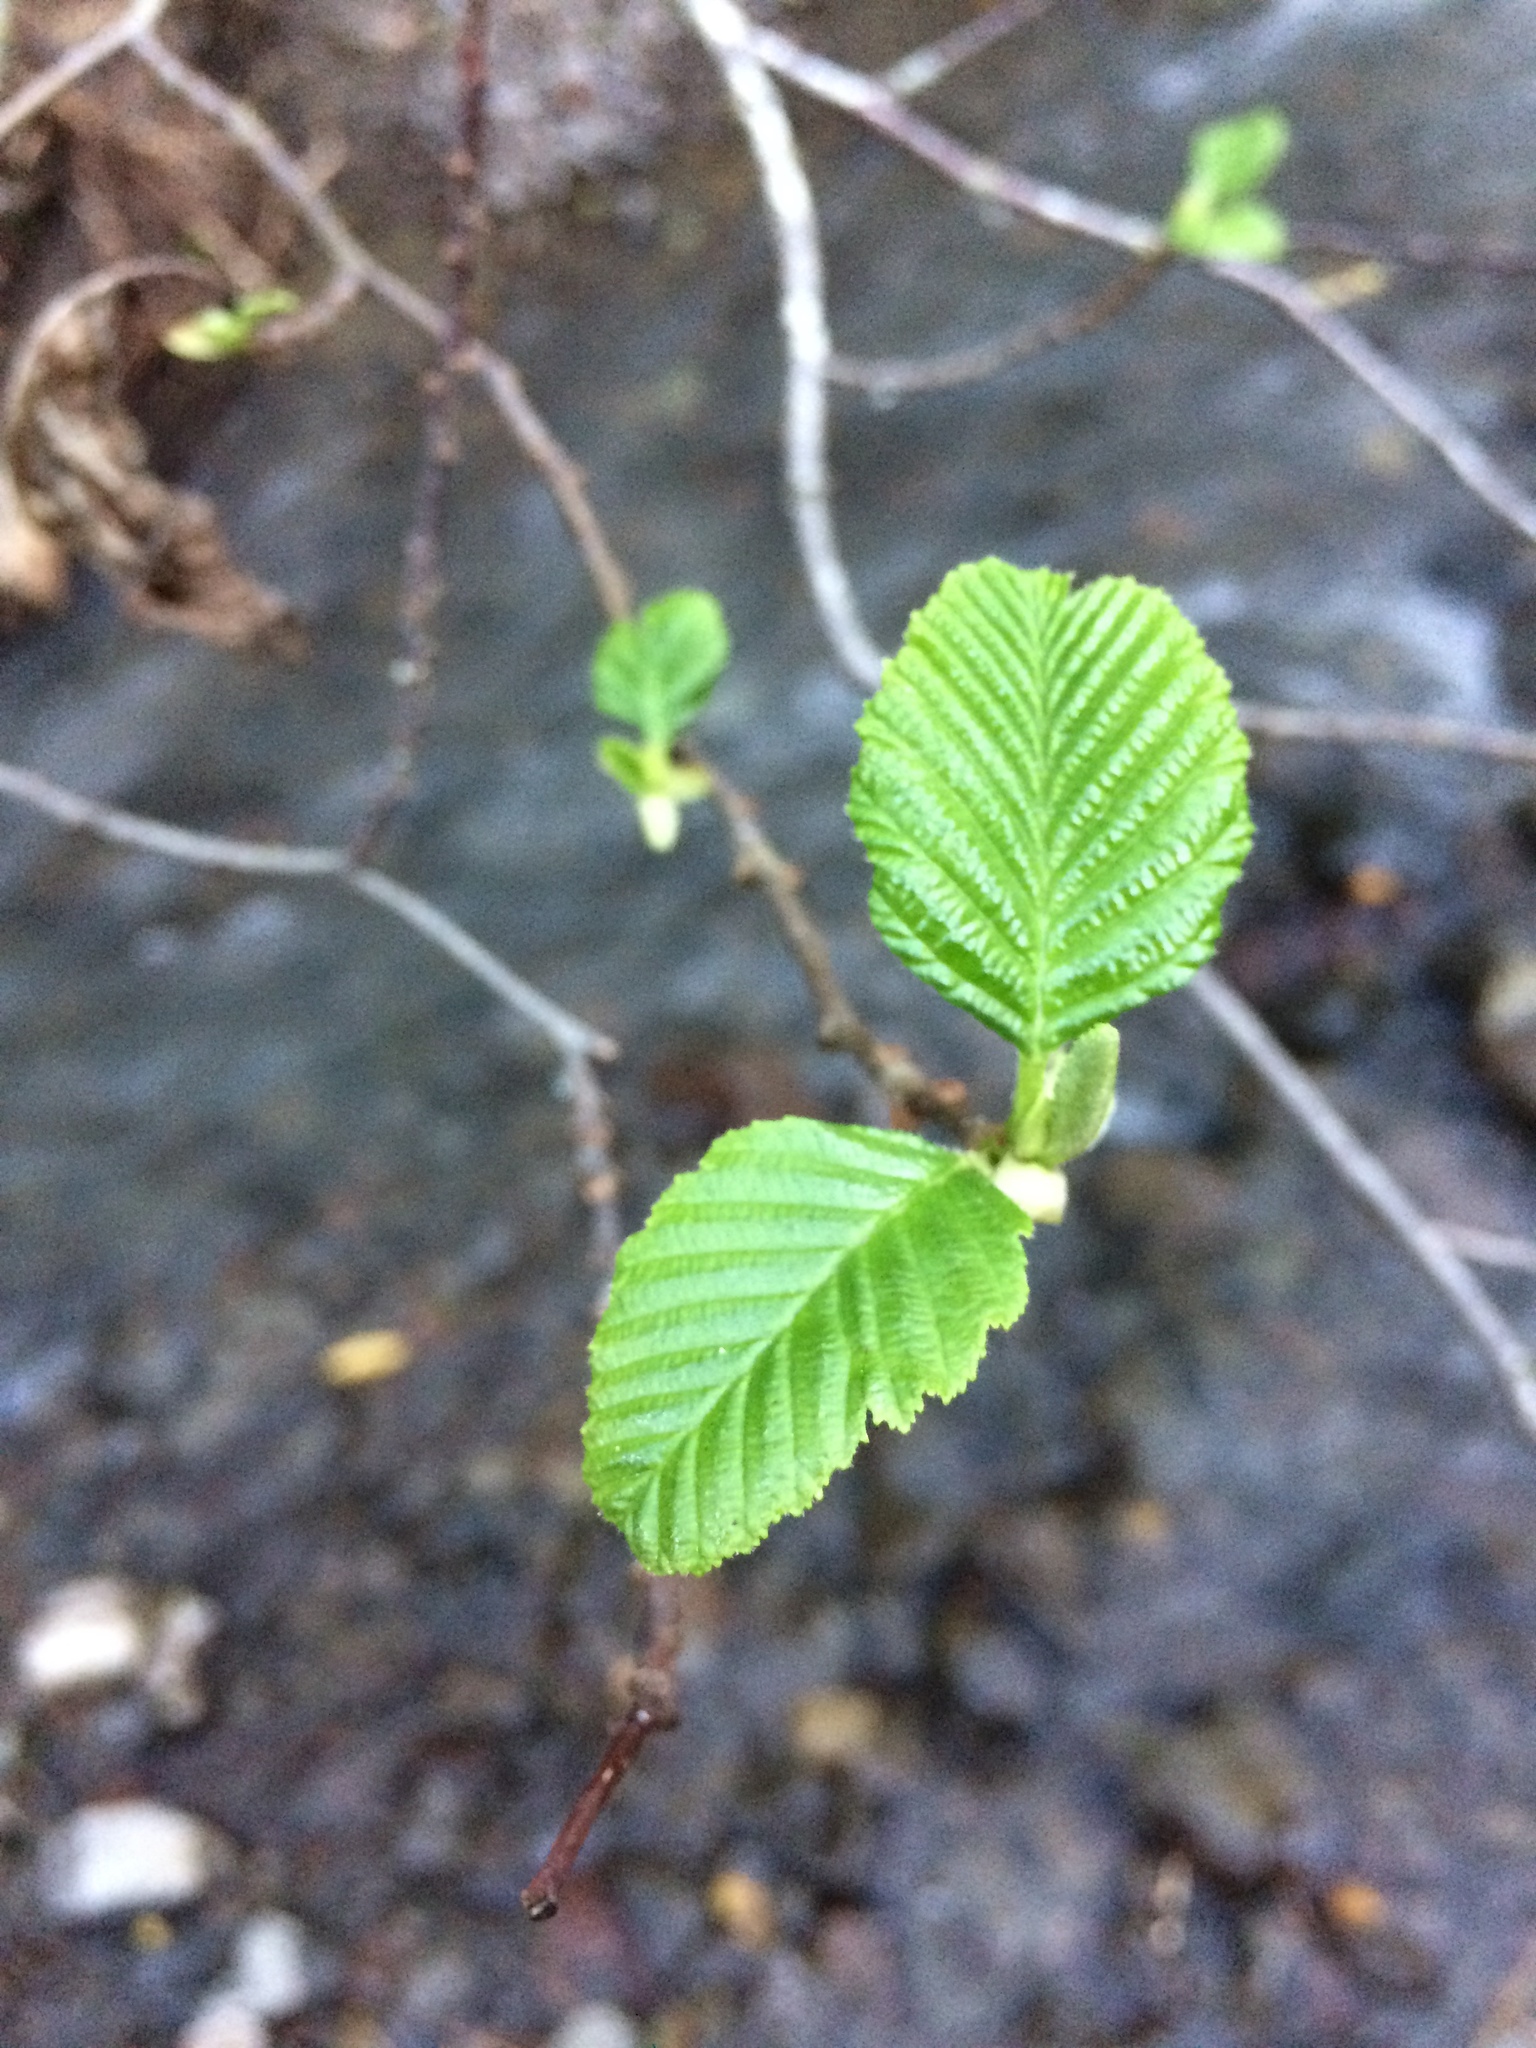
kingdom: Plantae
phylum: Tracheophyta
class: Magnoliopsida
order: Fagales
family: Betulaceae
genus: Alnus
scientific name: Alnus rhombifolia
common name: California alder
